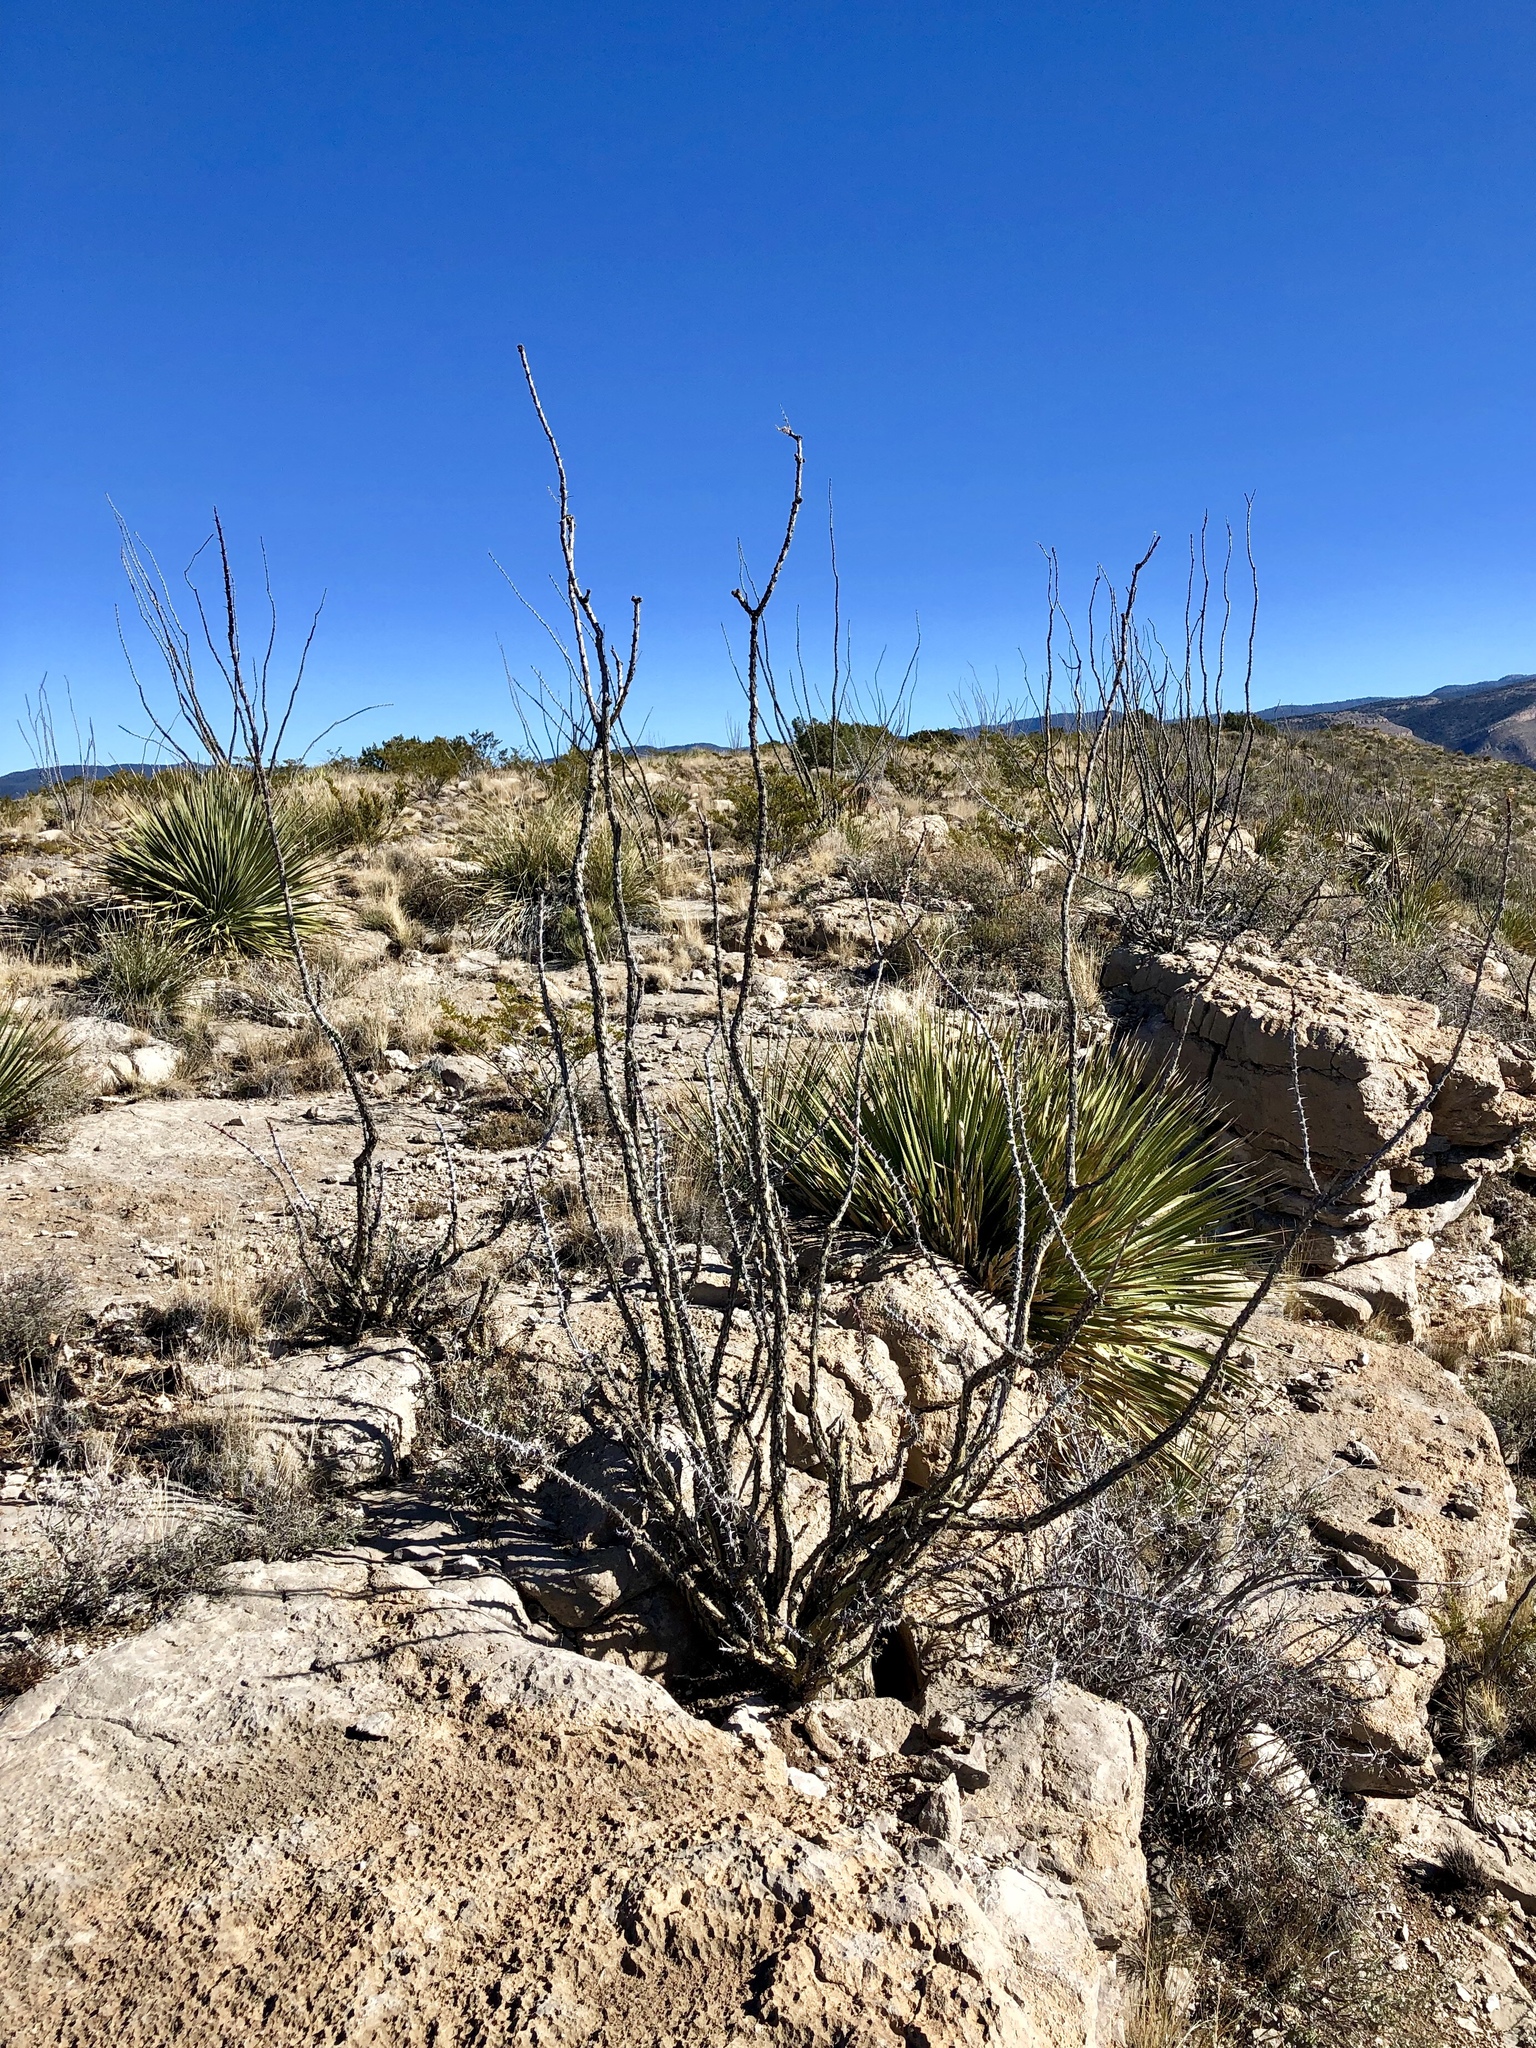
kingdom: Plantae
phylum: Tracheophyta
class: Magnoliopsida
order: Ericales
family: Fouquieriaceae
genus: Fouquieria
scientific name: Fouquieria splendens
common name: Vine-cactus
